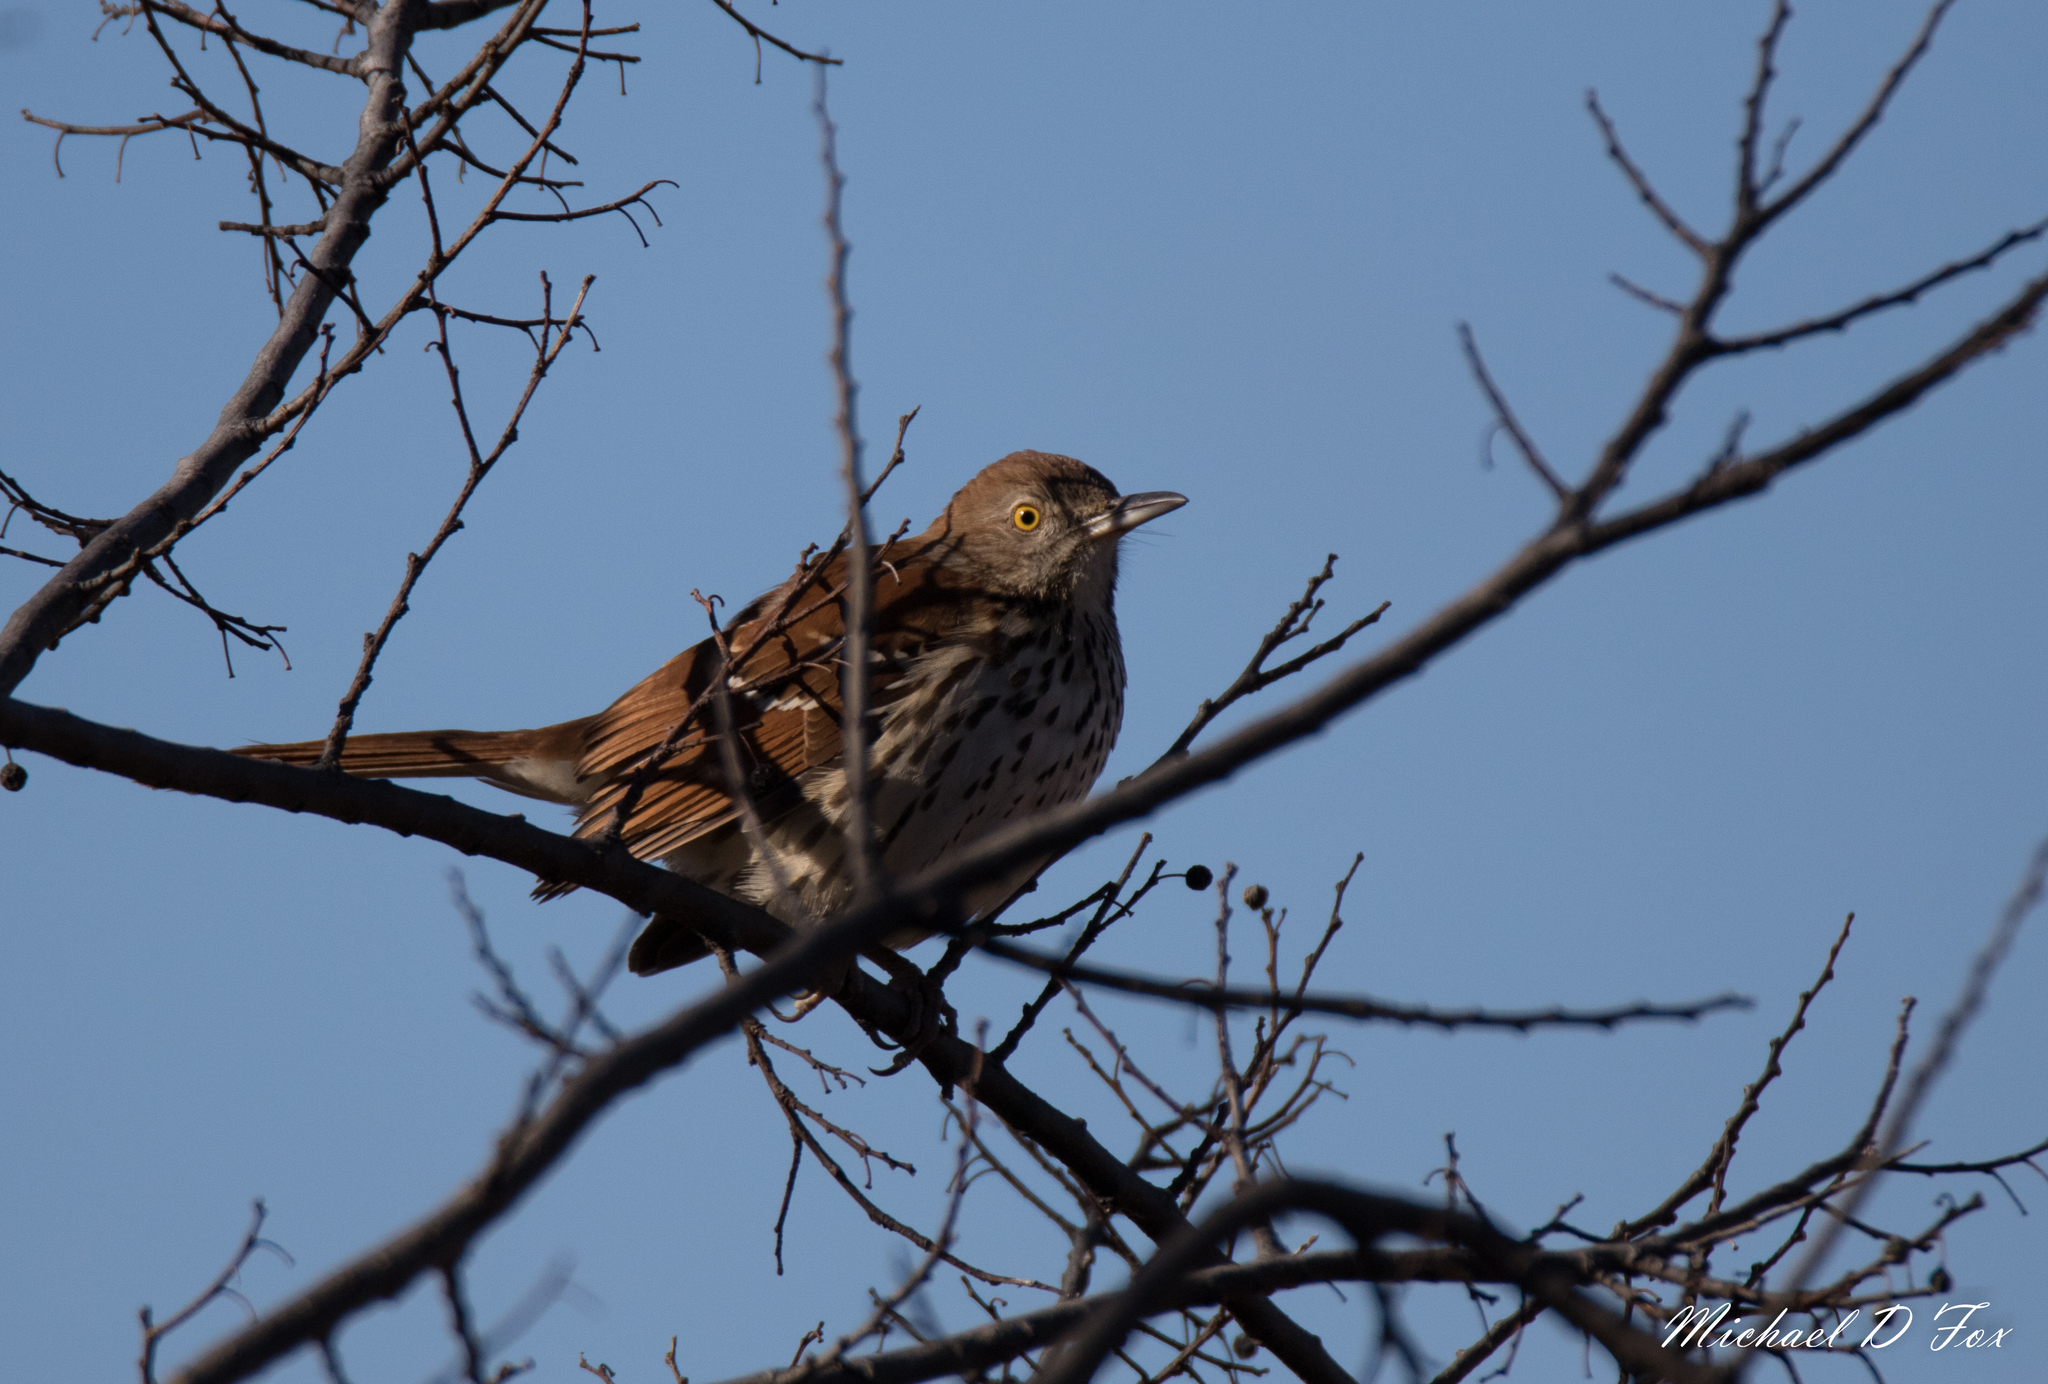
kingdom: Animalia
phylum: Chordata
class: Aves
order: Passeriformes
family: Mimidae
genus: Toxostoma
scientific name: Toxostoma rufum
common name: Brown thrasher
